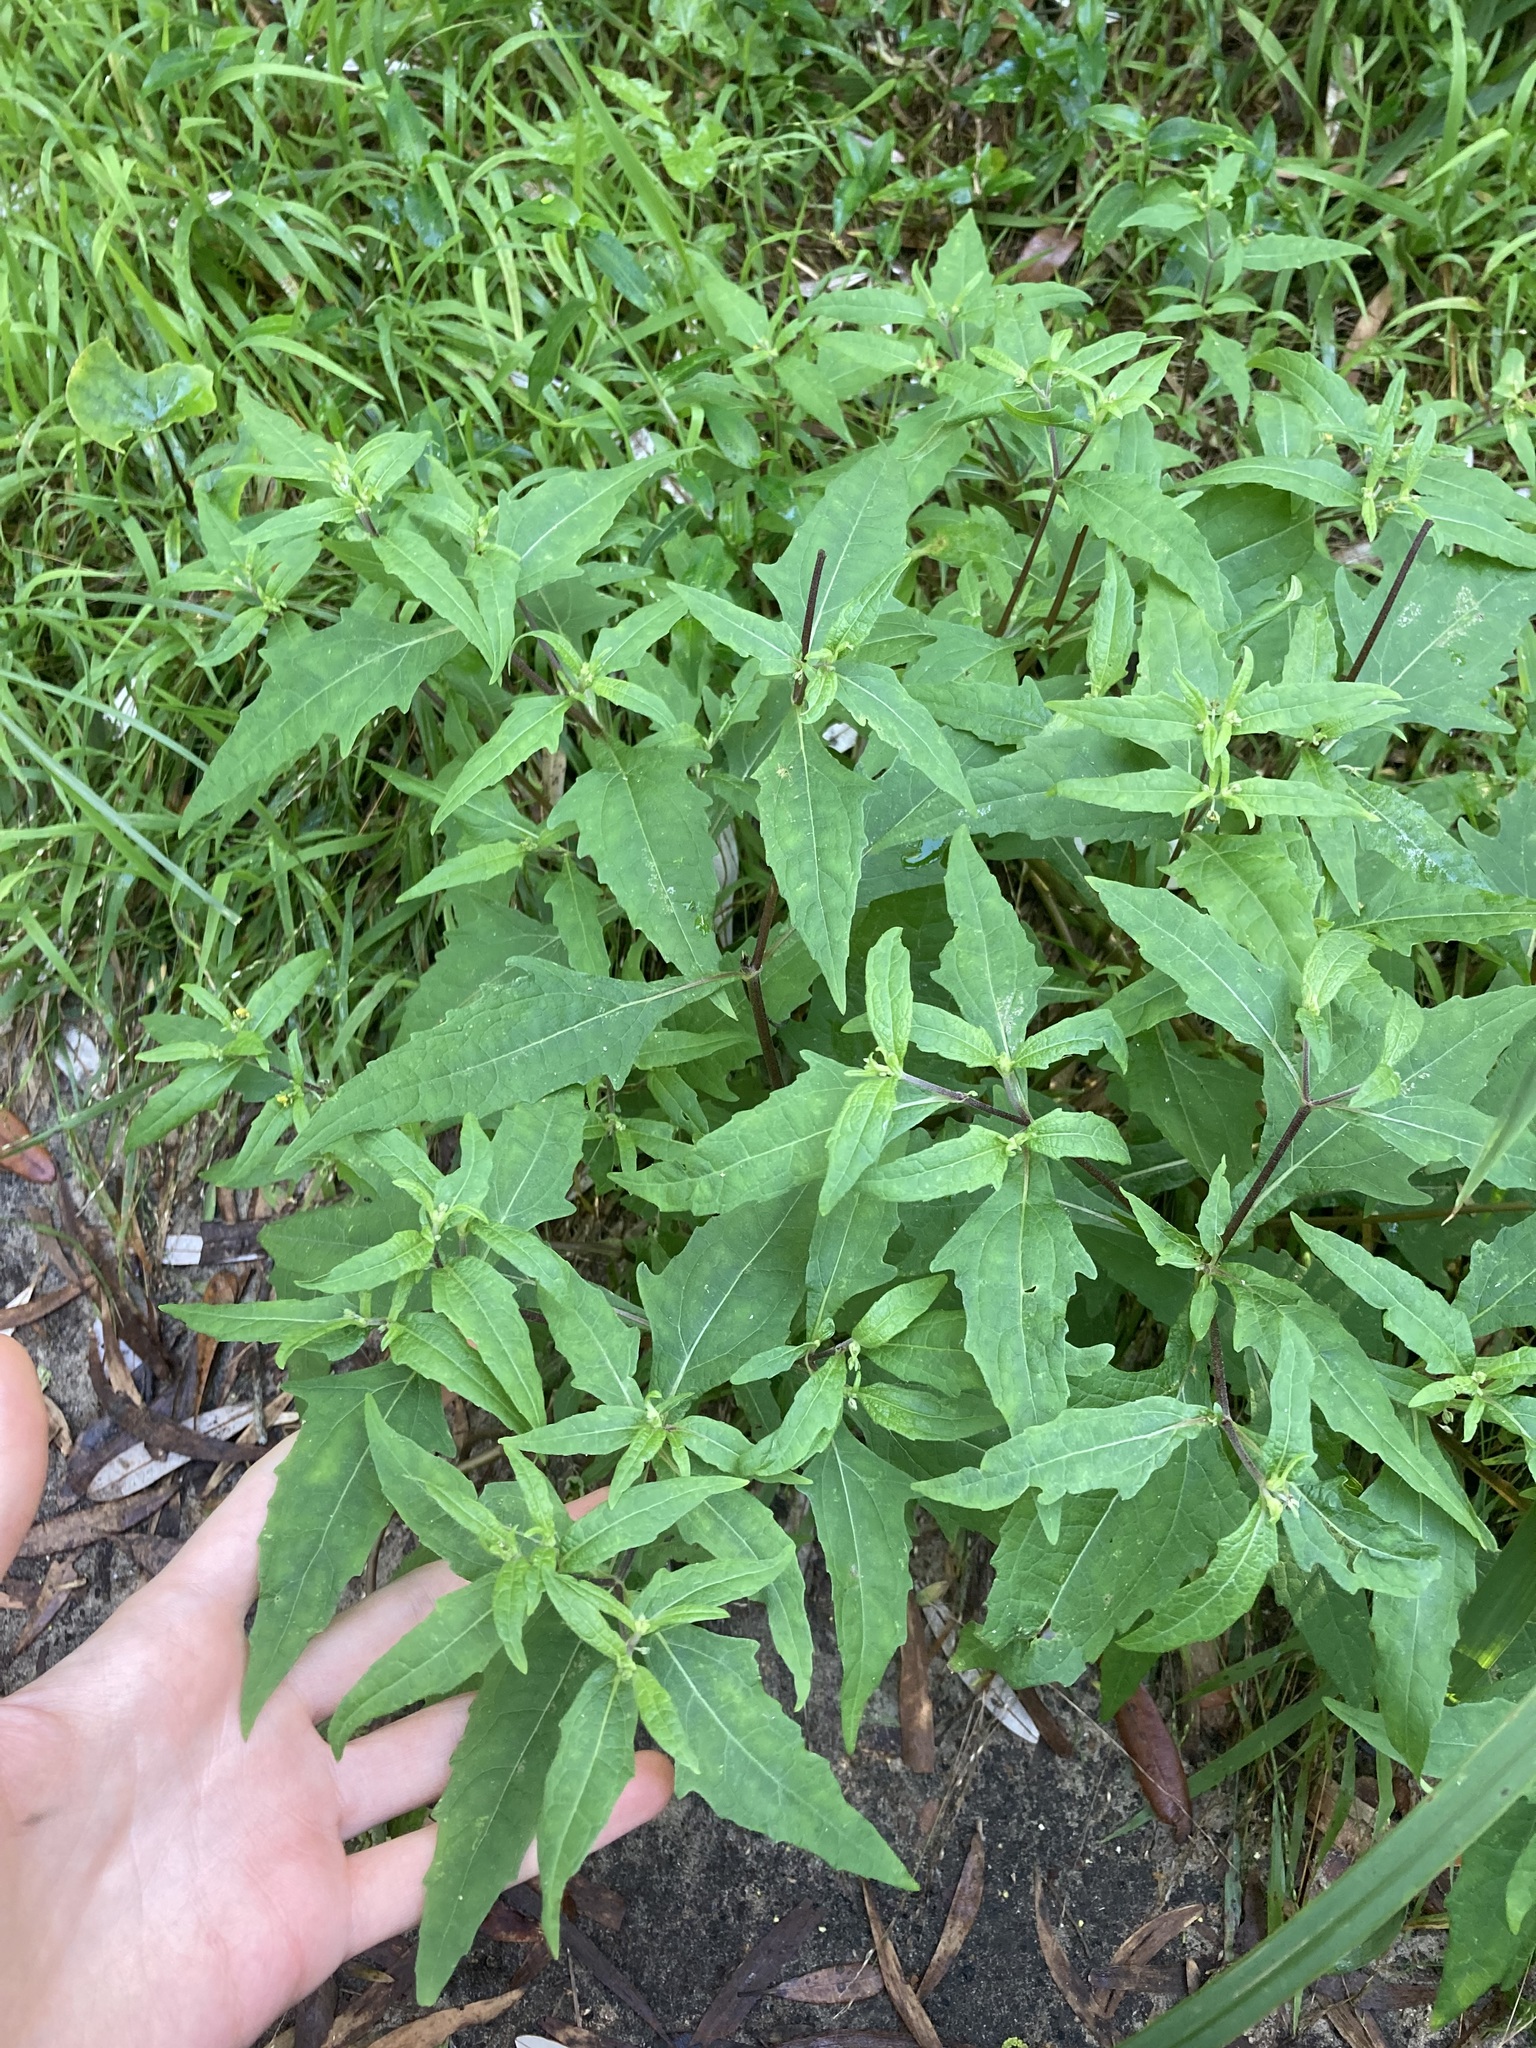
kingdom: Plantae
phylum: Tracheophyta
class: Magnoliopsida
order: Asterales
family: Asteraceae
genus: Sigesbeckia
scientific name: Sigesbeckia orientalis
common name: Eastern st paul's-wort
